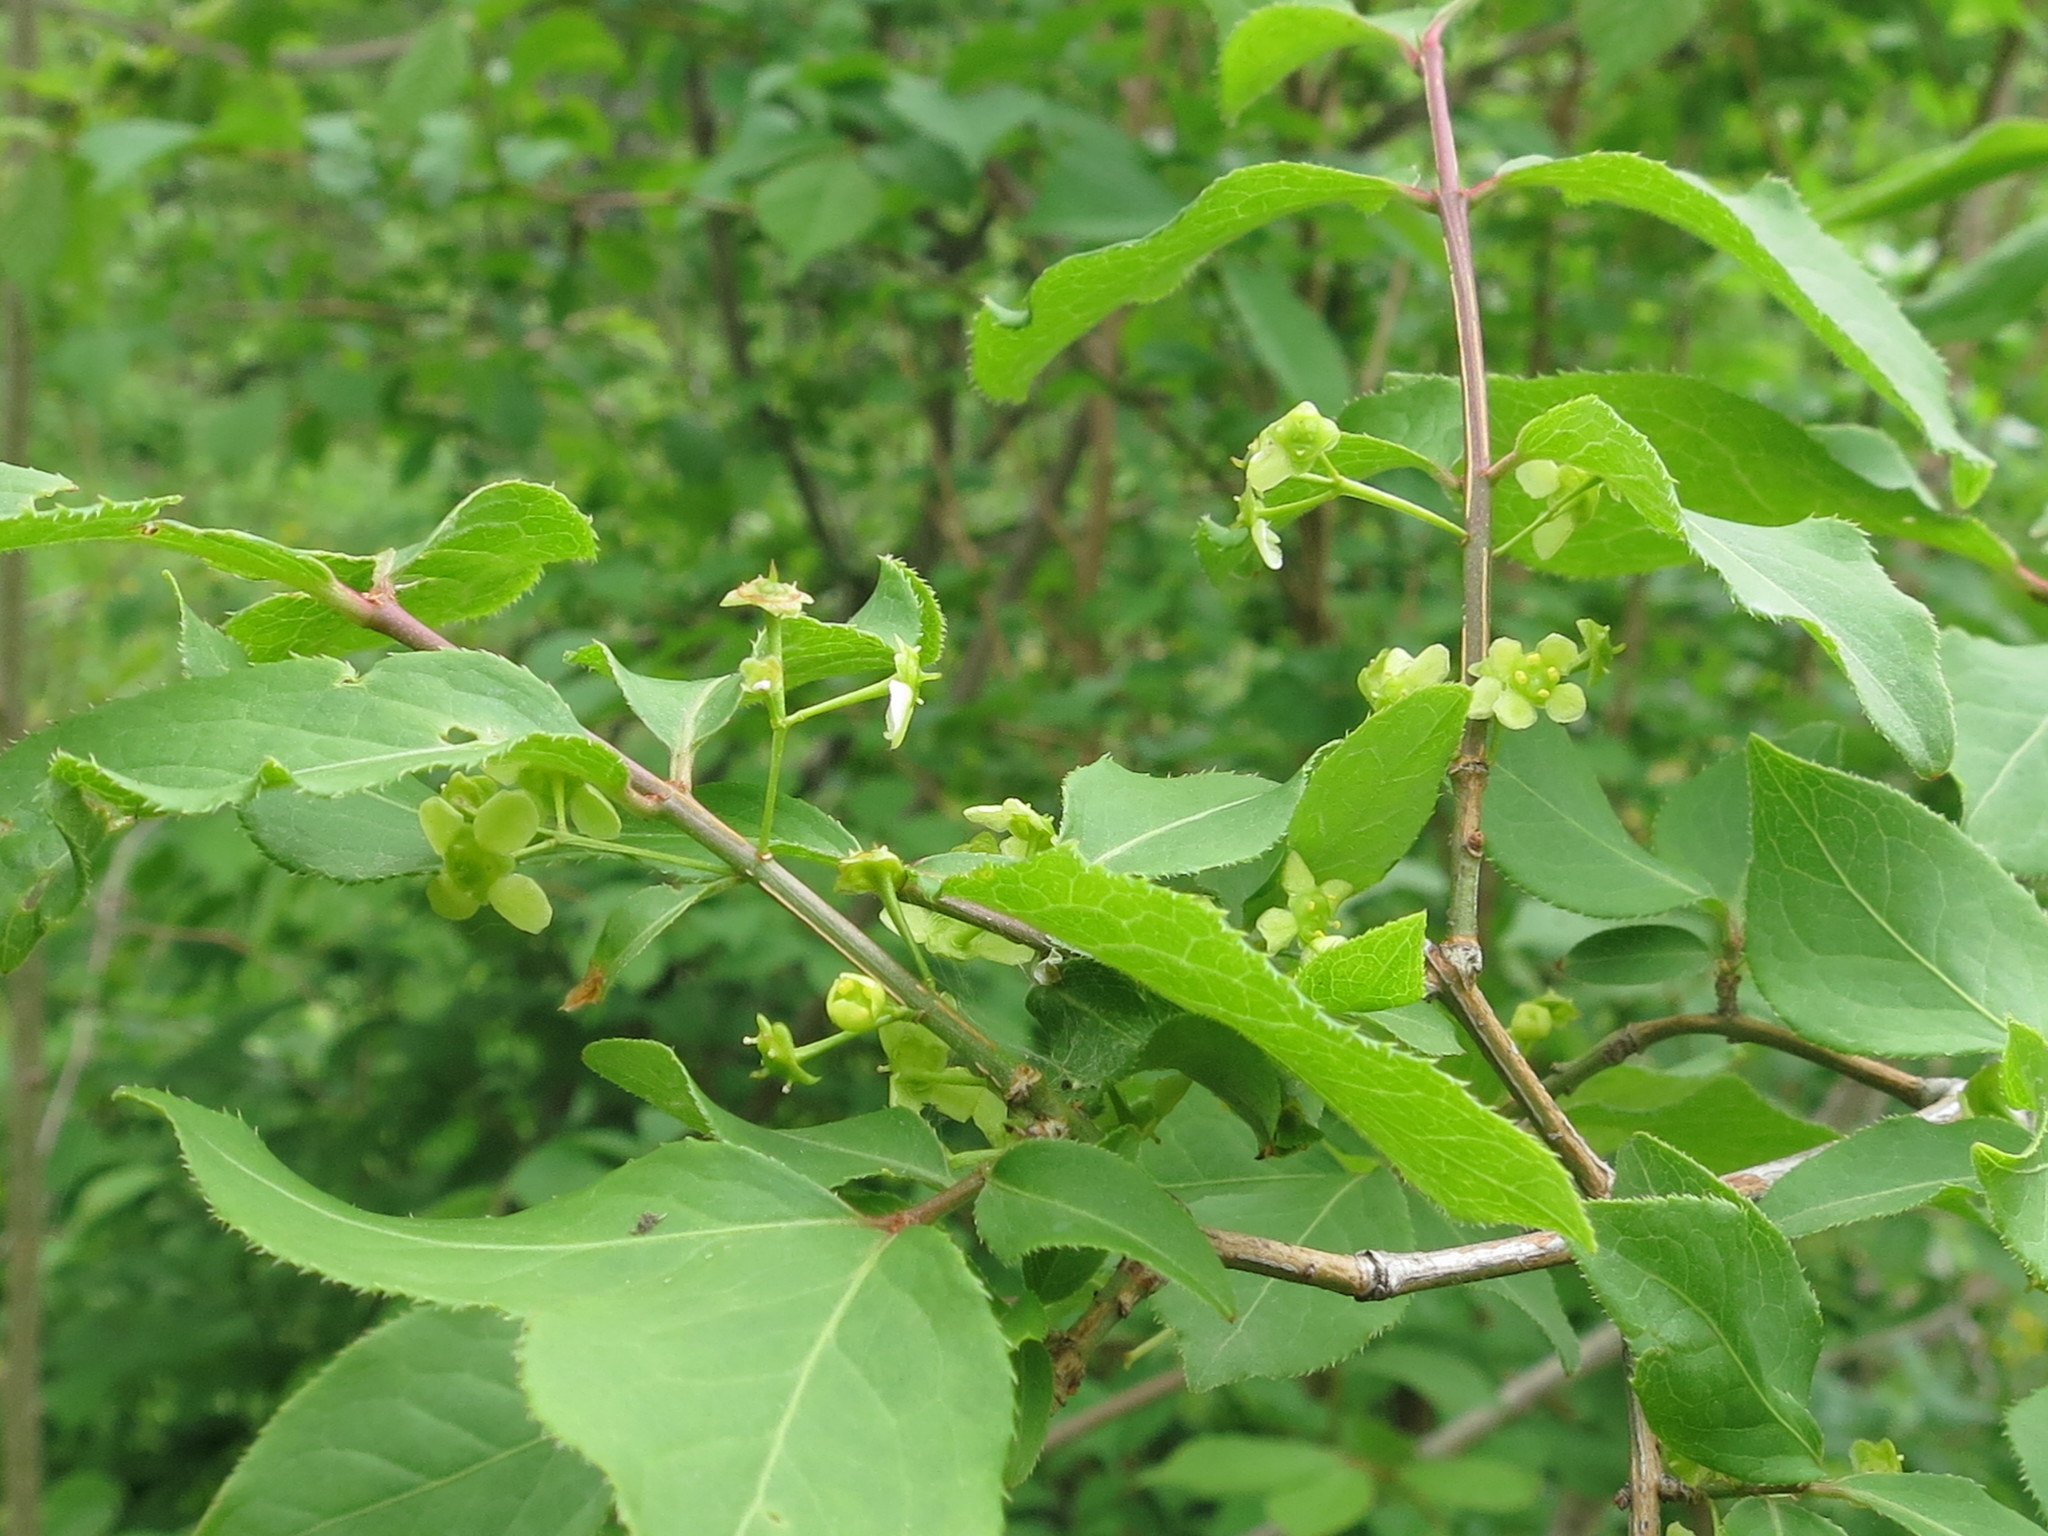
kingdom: Plantae
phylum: Tracheophyta
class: Magnoliopsida
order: Celastrales
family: Celastraceae
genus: Euonymus
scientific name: Euonymus alatus
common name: Winged euonymus
